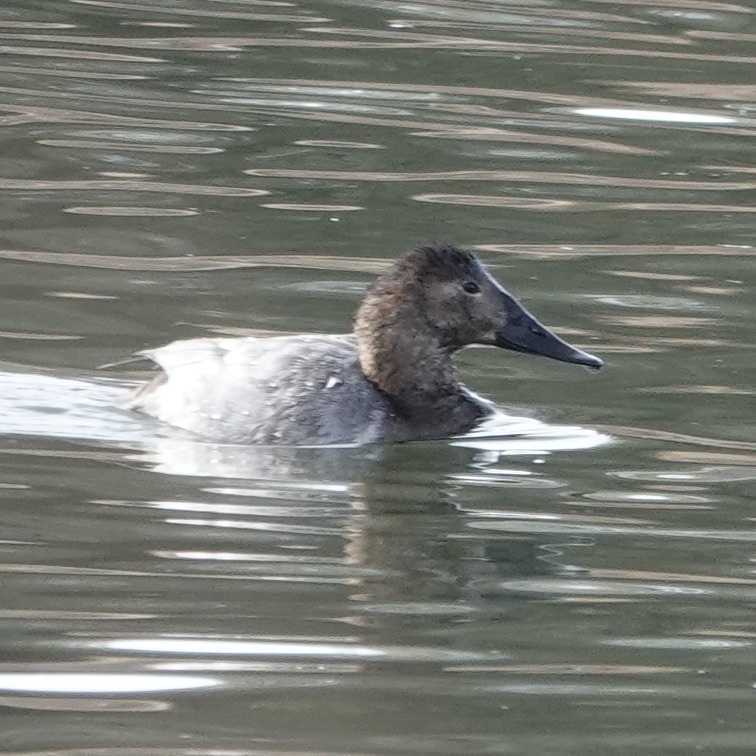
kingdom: Animalia
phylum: Chordata
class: Aves
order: Anseriformes
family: Anatidae
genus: Aythya
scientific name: Aythya valisineria
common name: Canvasback
